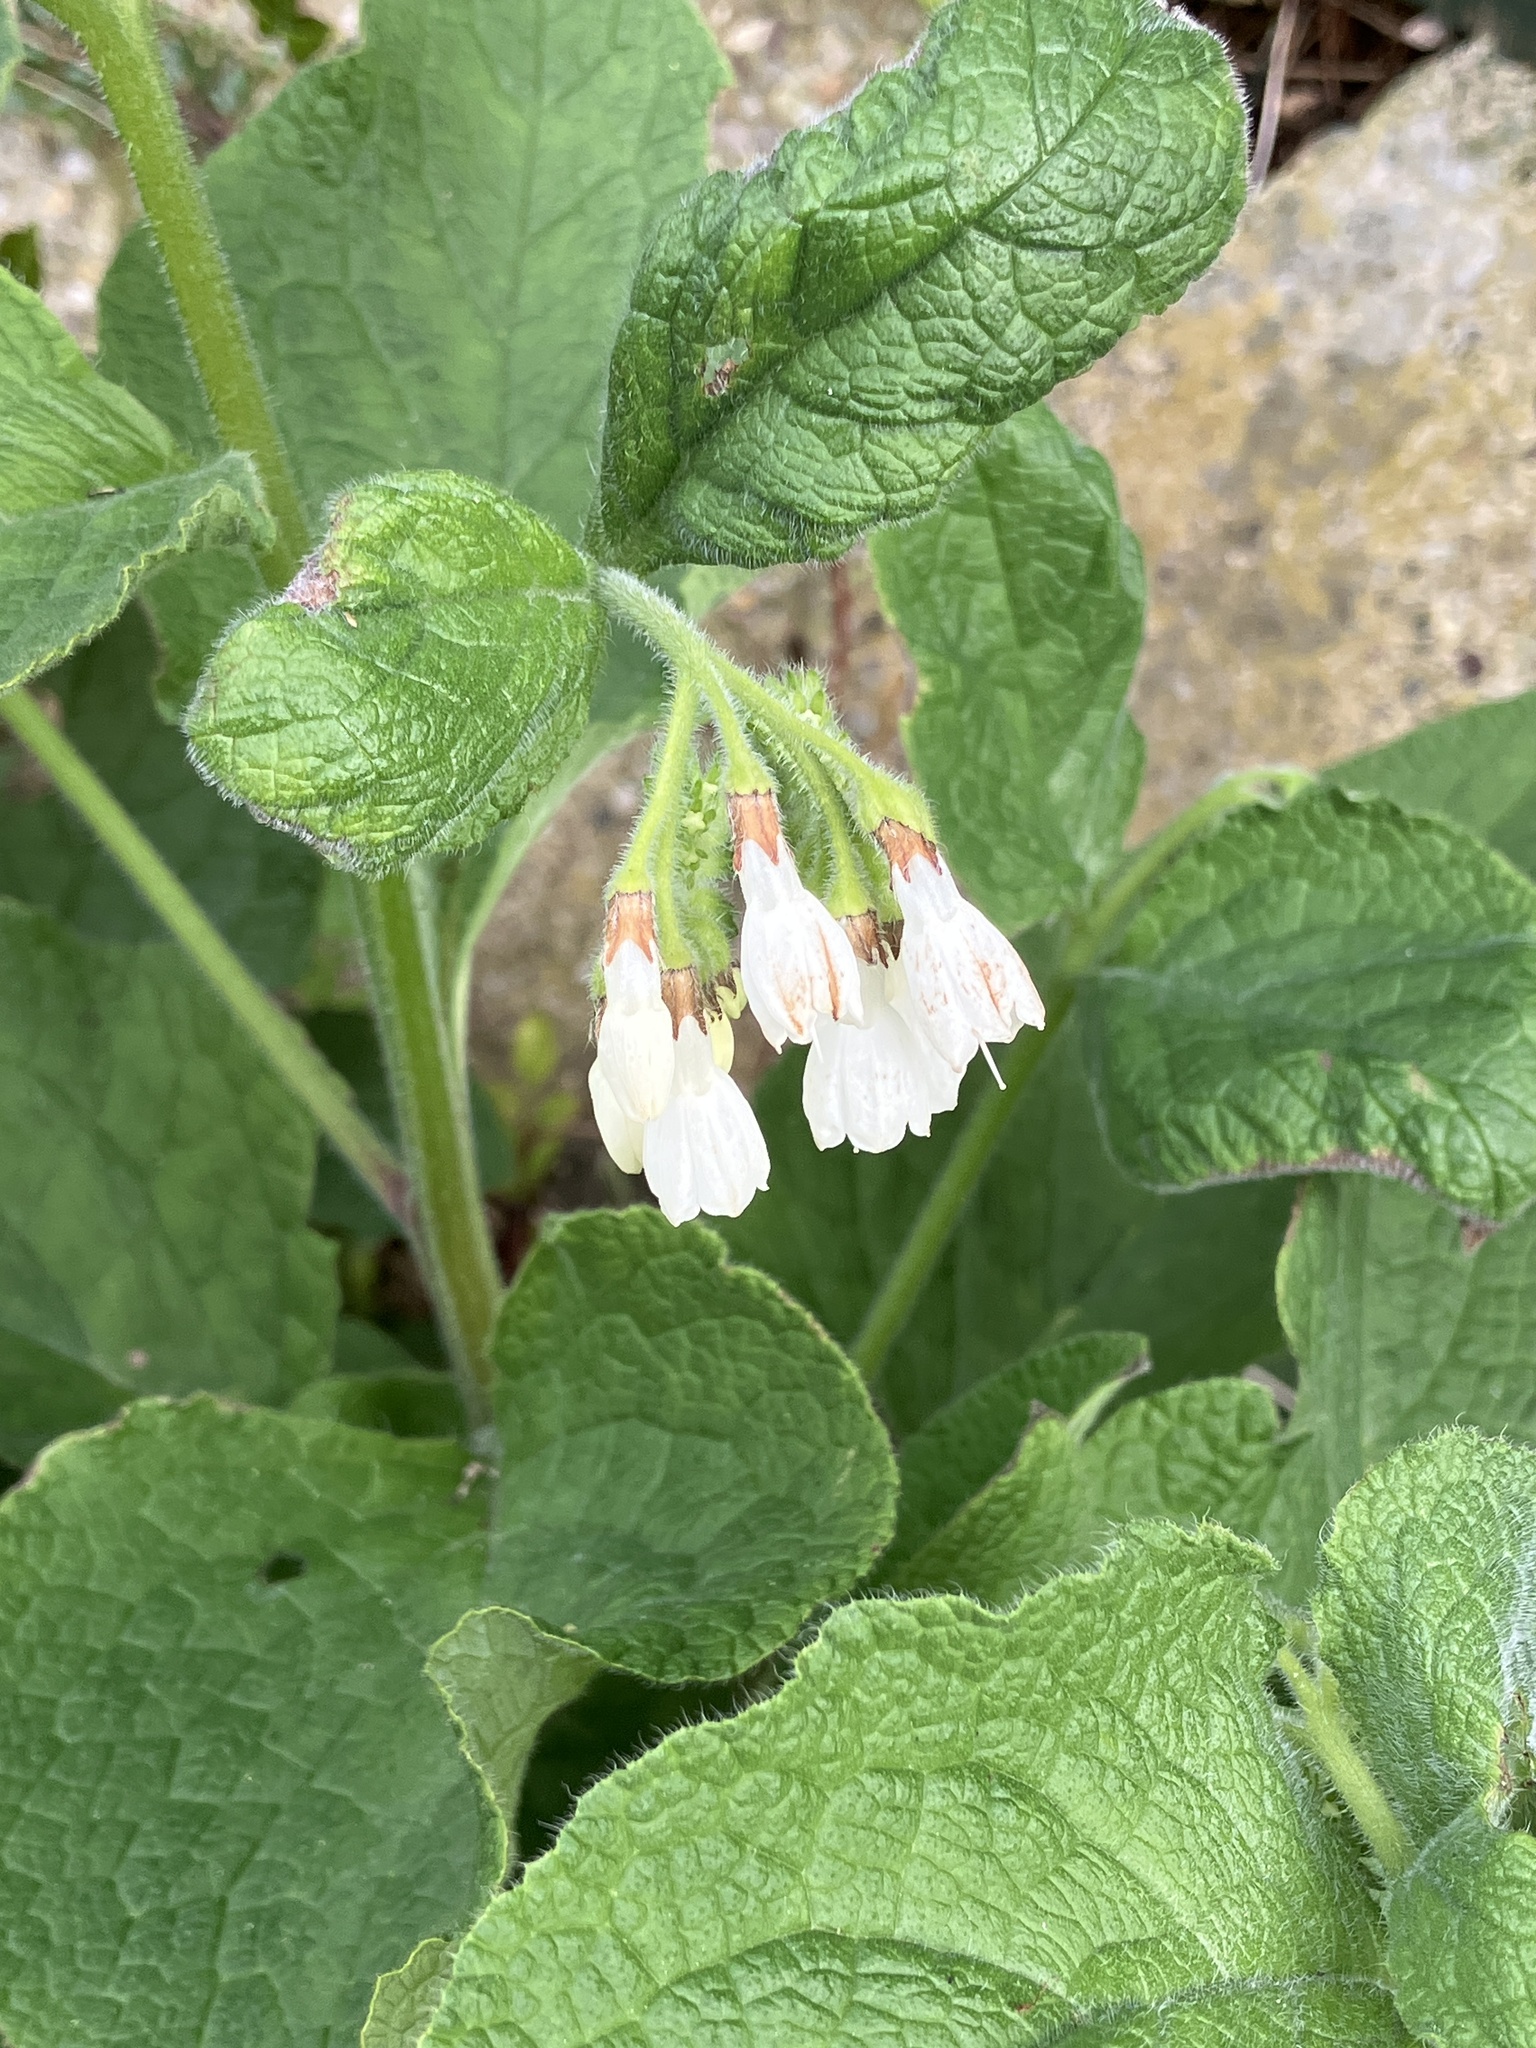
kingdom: Plantae
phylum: Tracheophyta
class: Magnoliopsida
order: Boraginales
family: Boraginaceae
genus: Symphytum
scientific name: Symphytum orientale
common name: White comfrey
